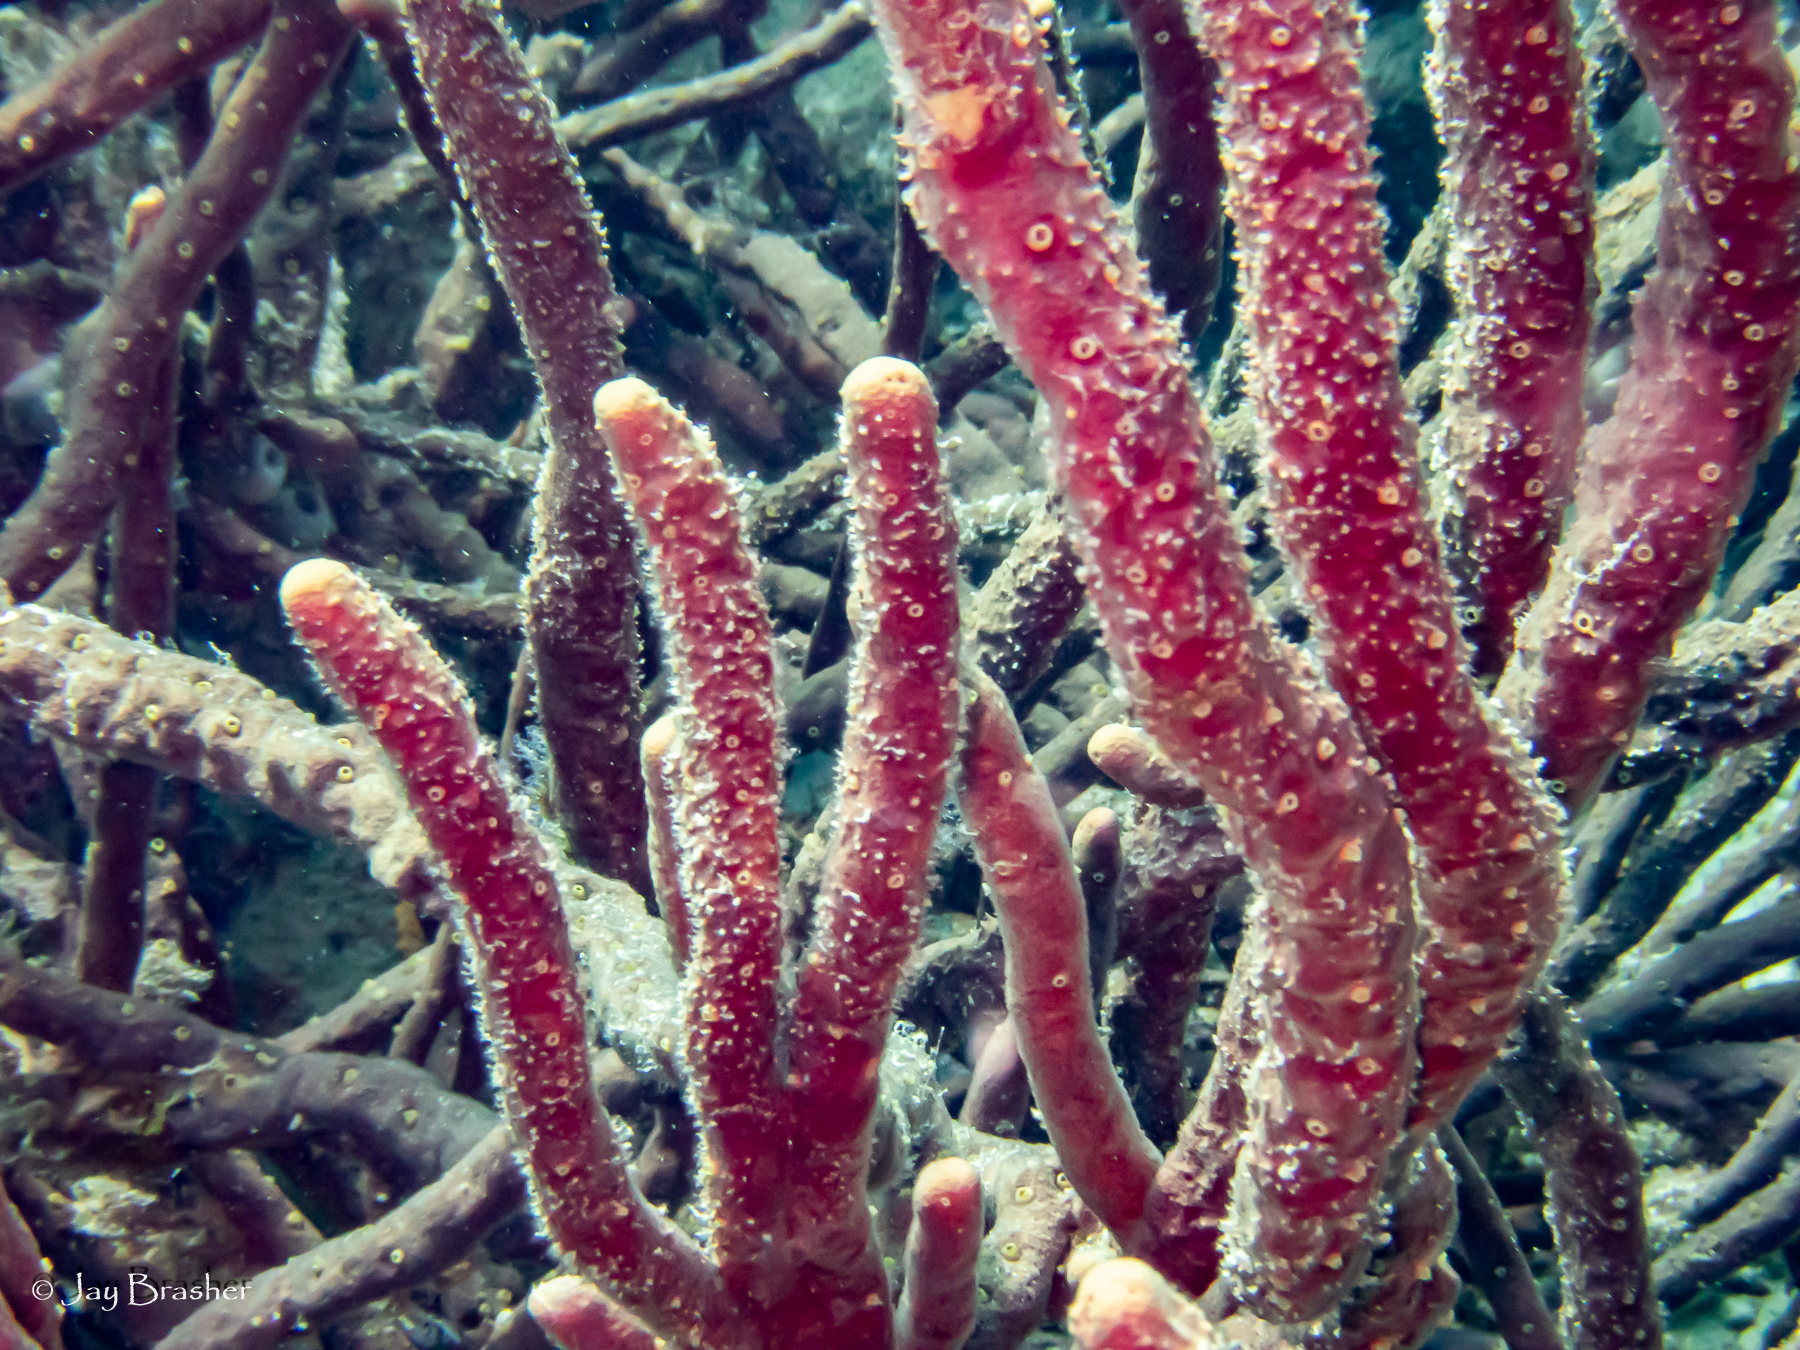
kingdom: Animalia
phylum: Porifera
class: Demospongiae
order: Verongiida
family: Aplysinidae
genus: Aplysina
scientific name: Aplysina cauliformis
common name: Branching candle sponge
